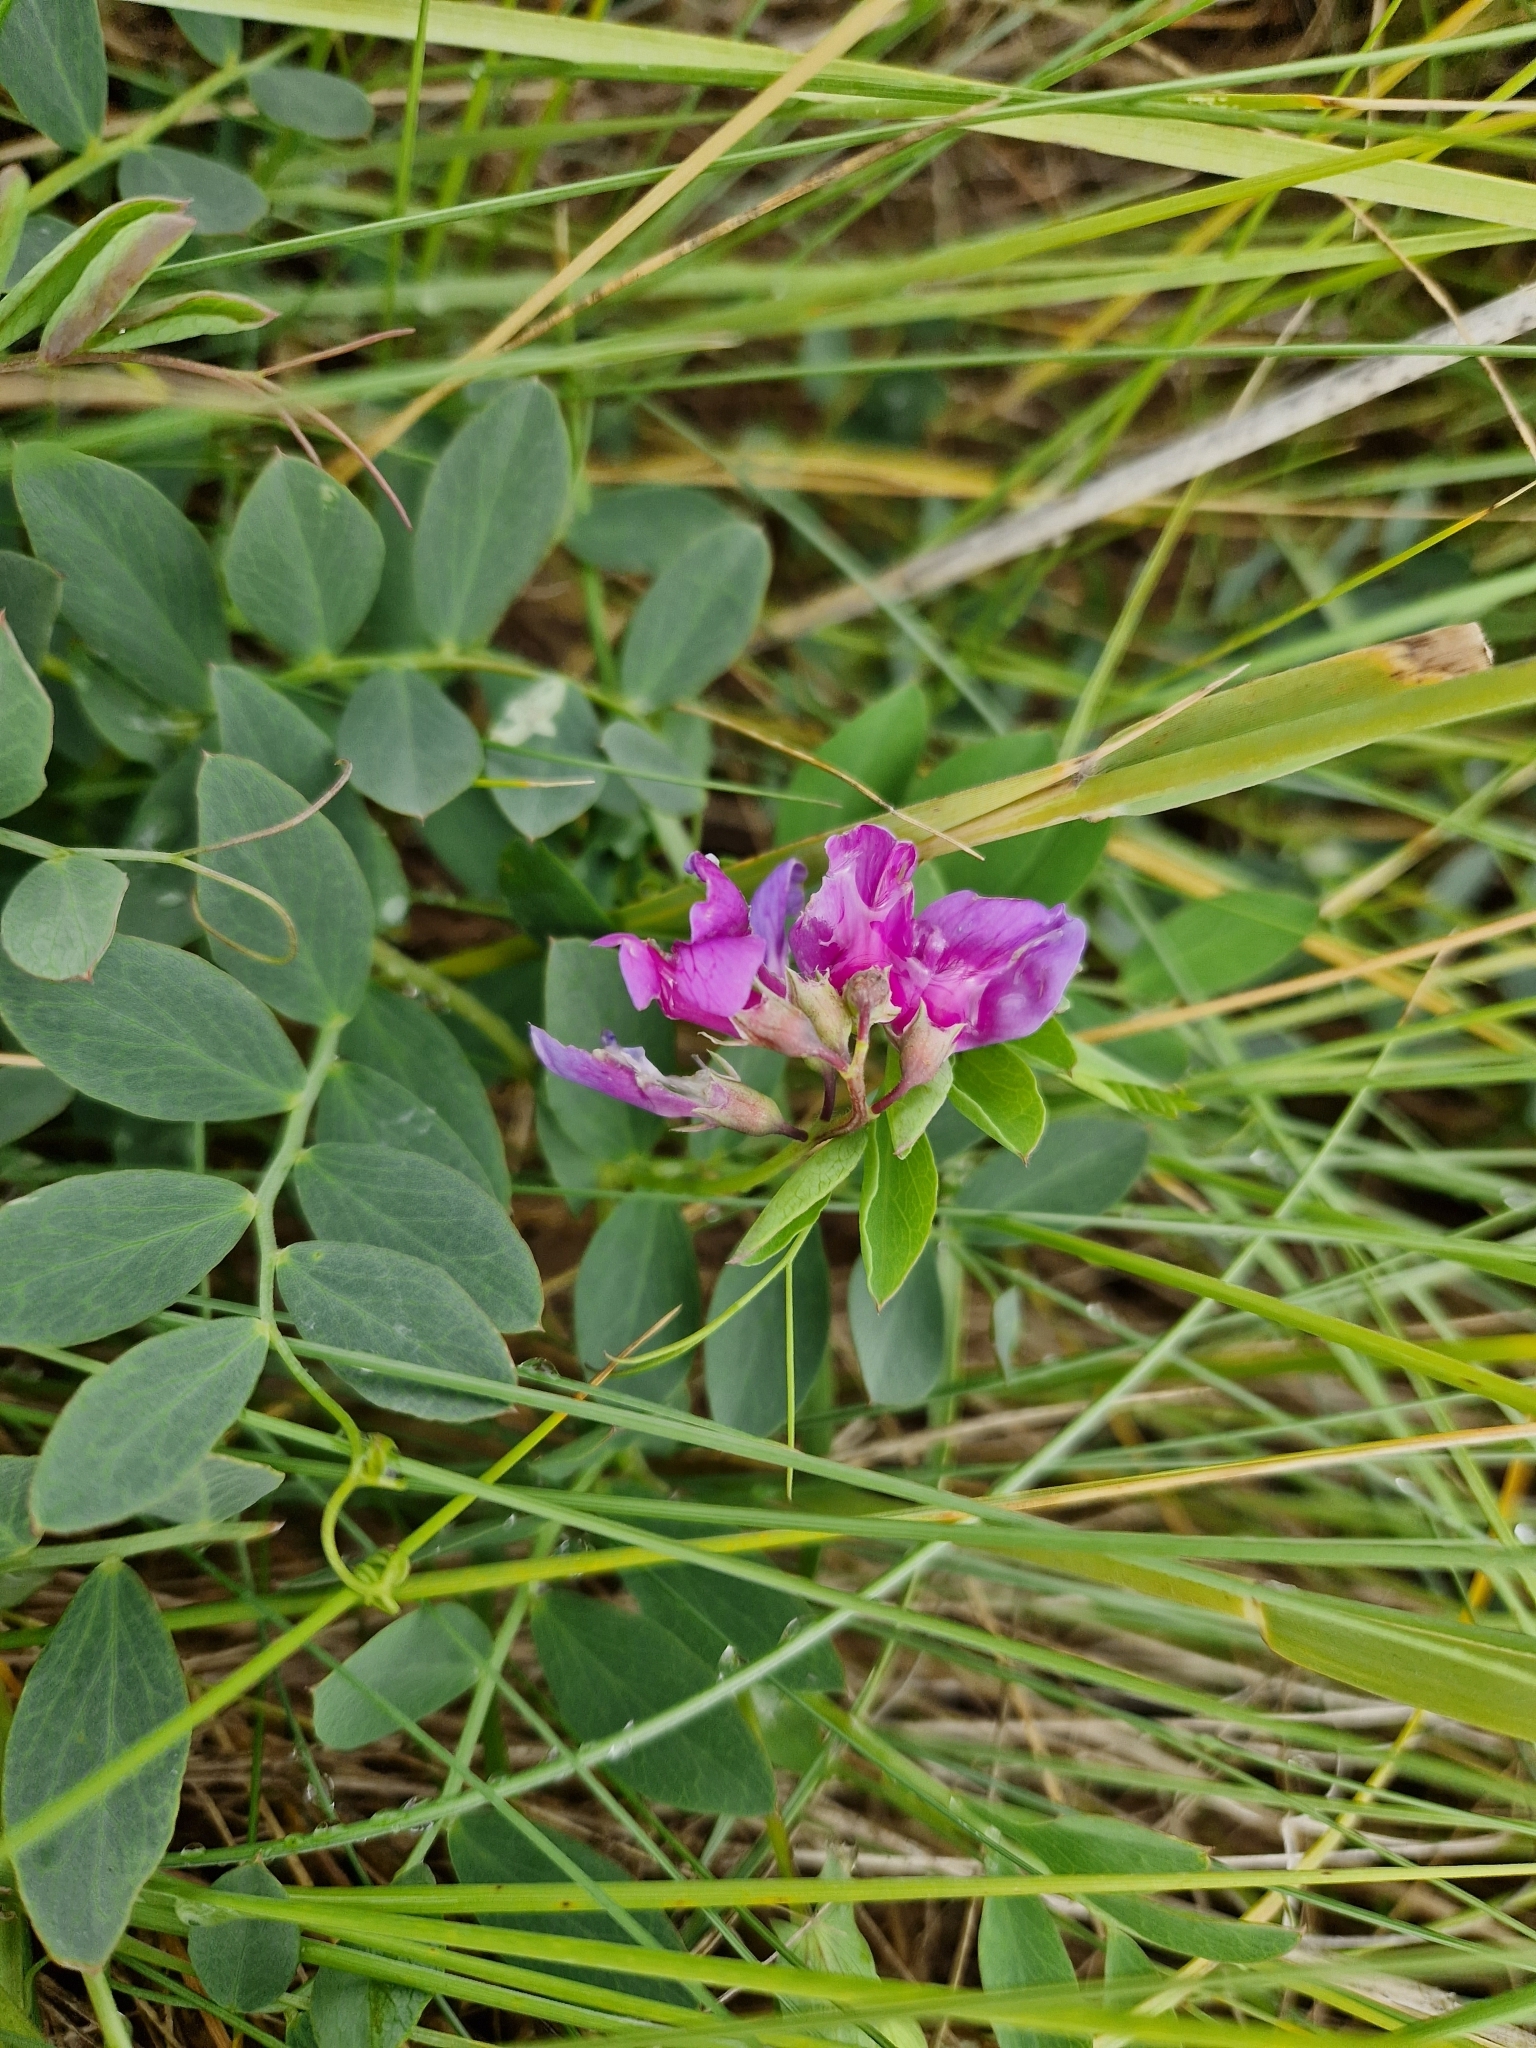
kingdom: Plantae
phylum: Tracheophyta
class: Magnoliopsida
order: Fabales
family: Fabaceae
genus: Lathyrus
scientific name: Lathyrus japonicus
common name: Sea pea
